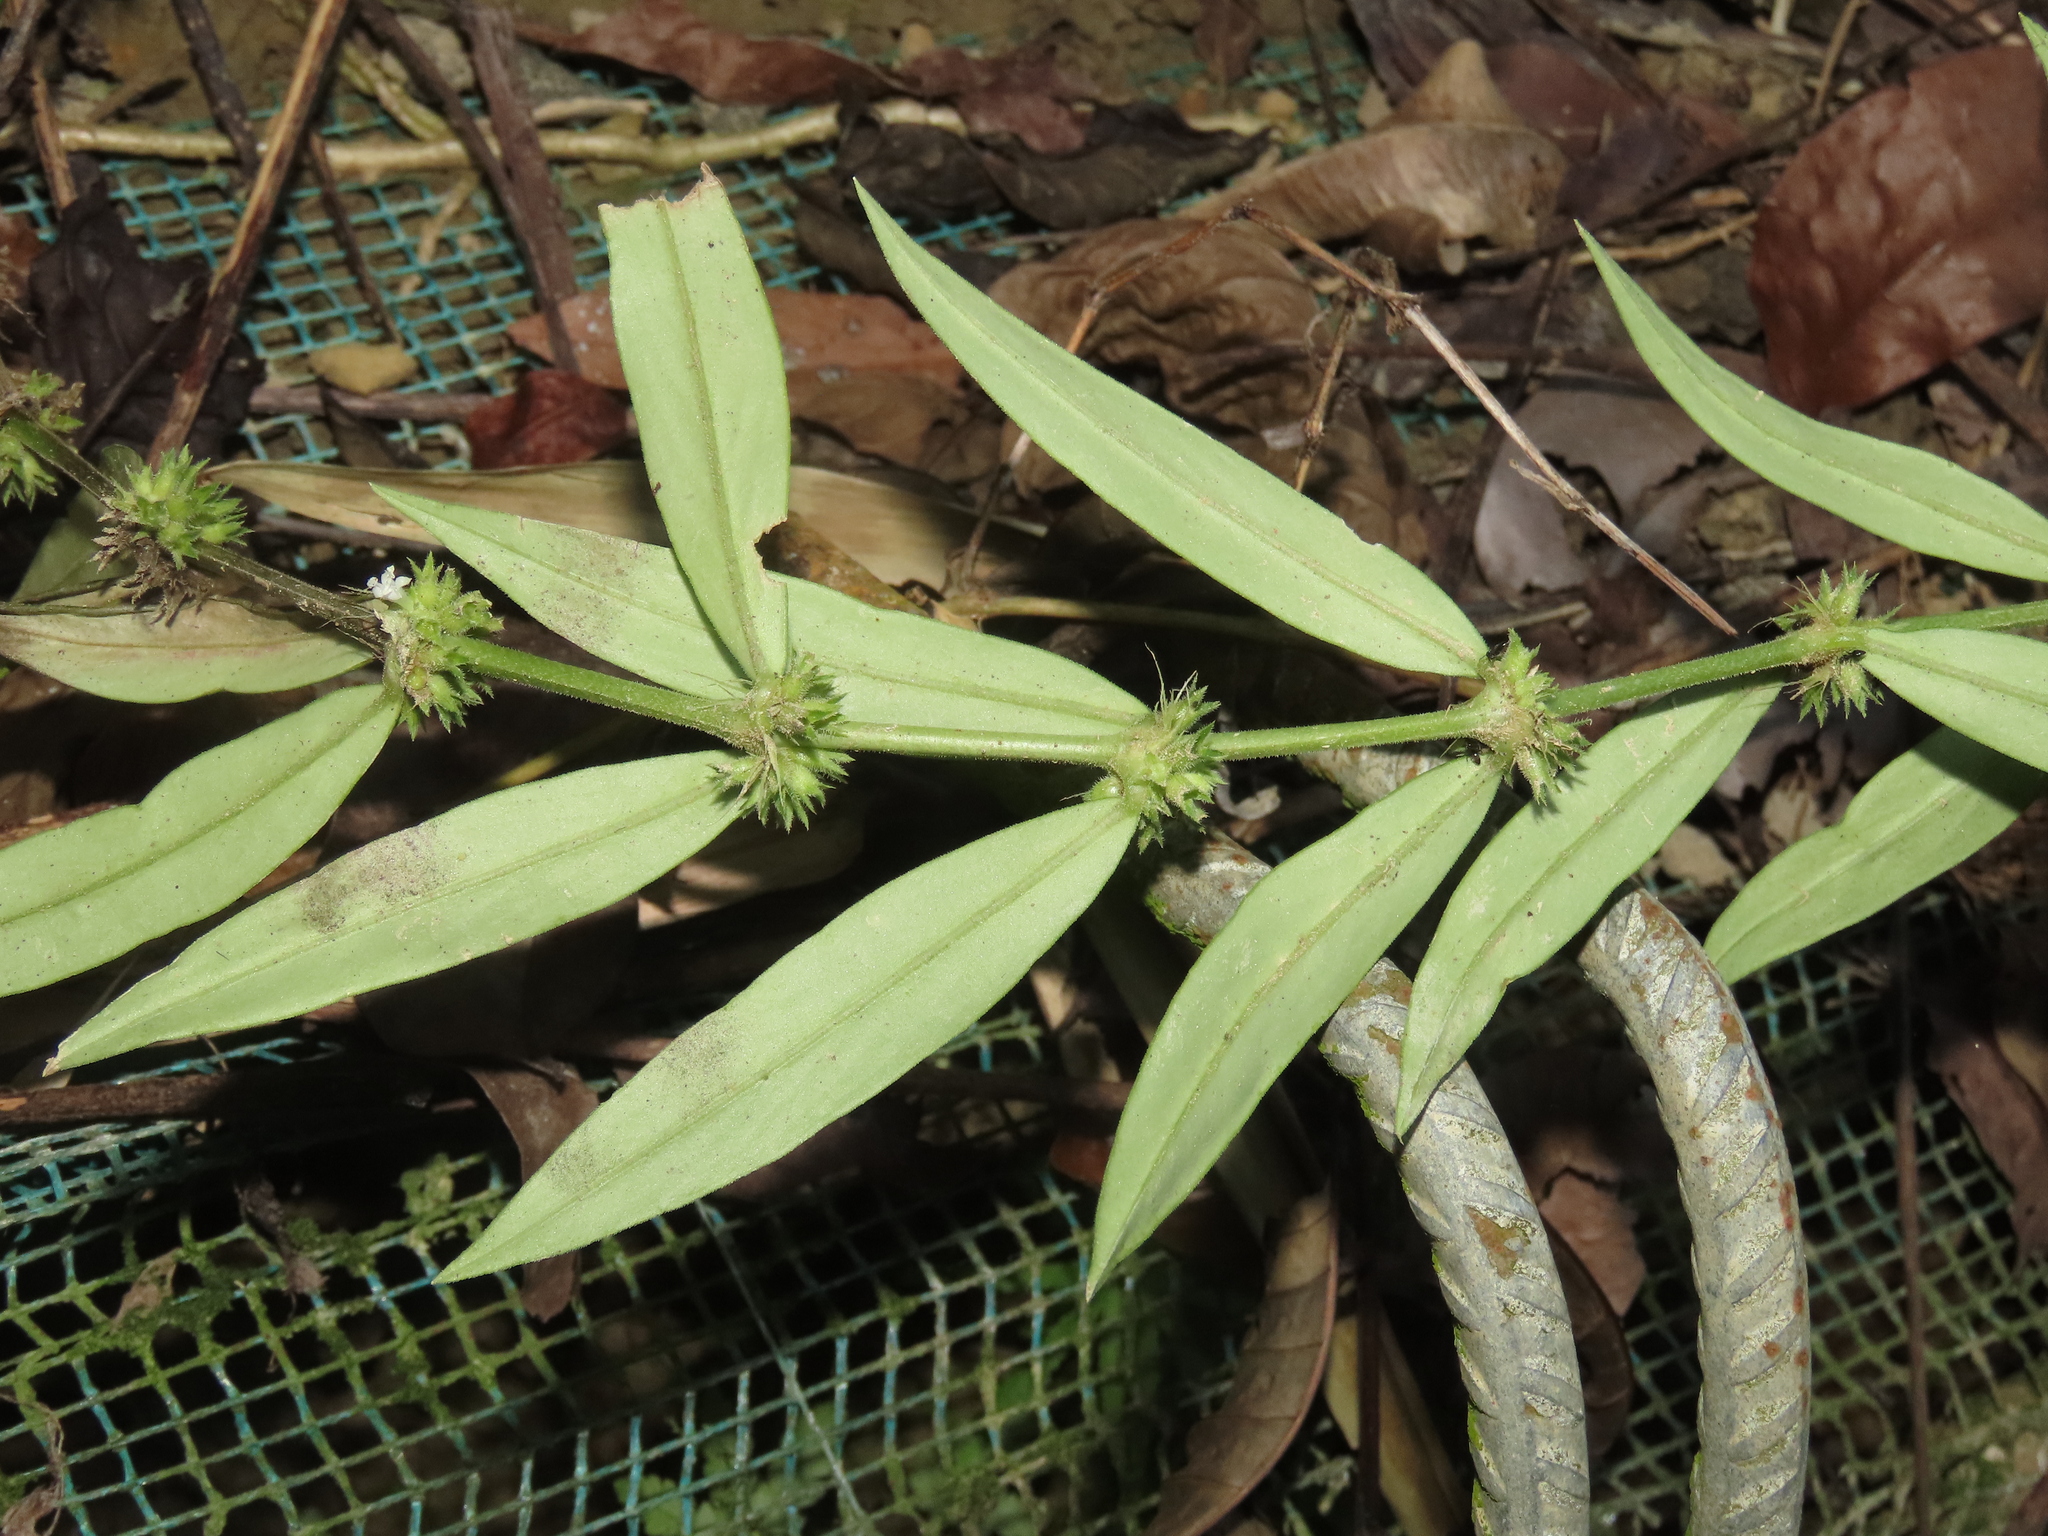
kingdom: Plantae
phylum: Tracheophyta
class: Magnoliopsida
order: Gentianales
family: Rubiaceae
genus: Scleromitrion
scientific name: Scleromitrion verticillatum
